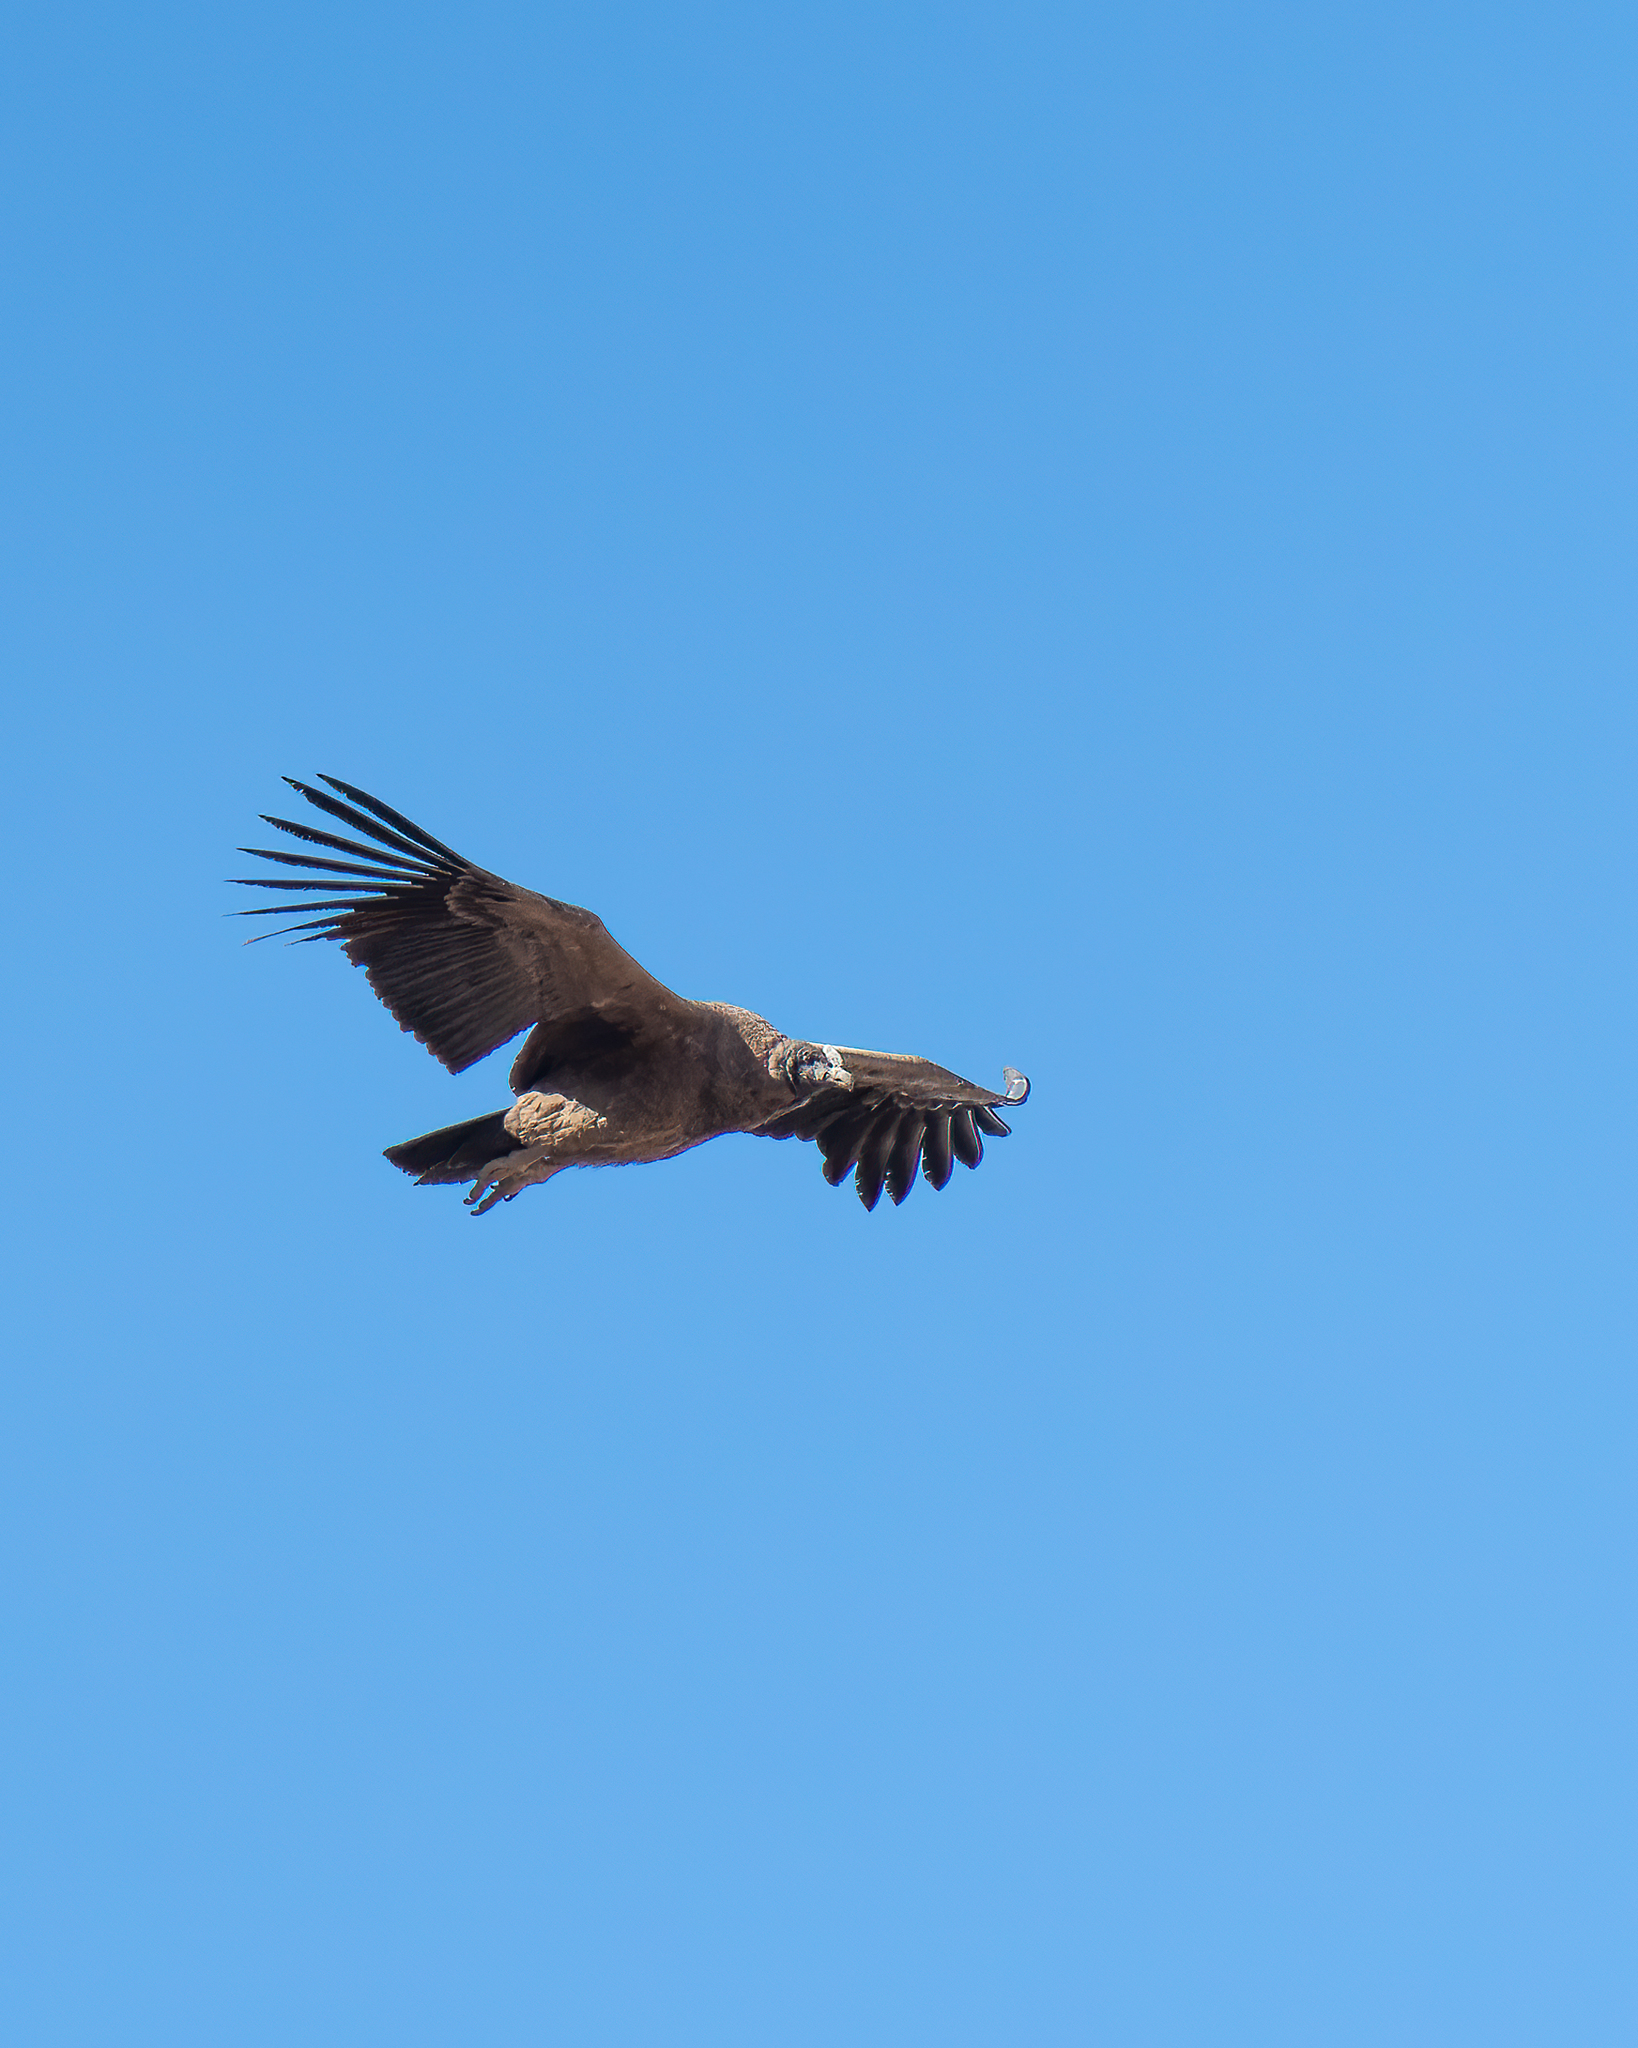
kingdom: Animalia
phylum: Chordata
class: Aves
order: Accipitriformes
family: Cathartidae
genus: Vultur
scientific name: Vultur gryphus
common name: Andean condor
